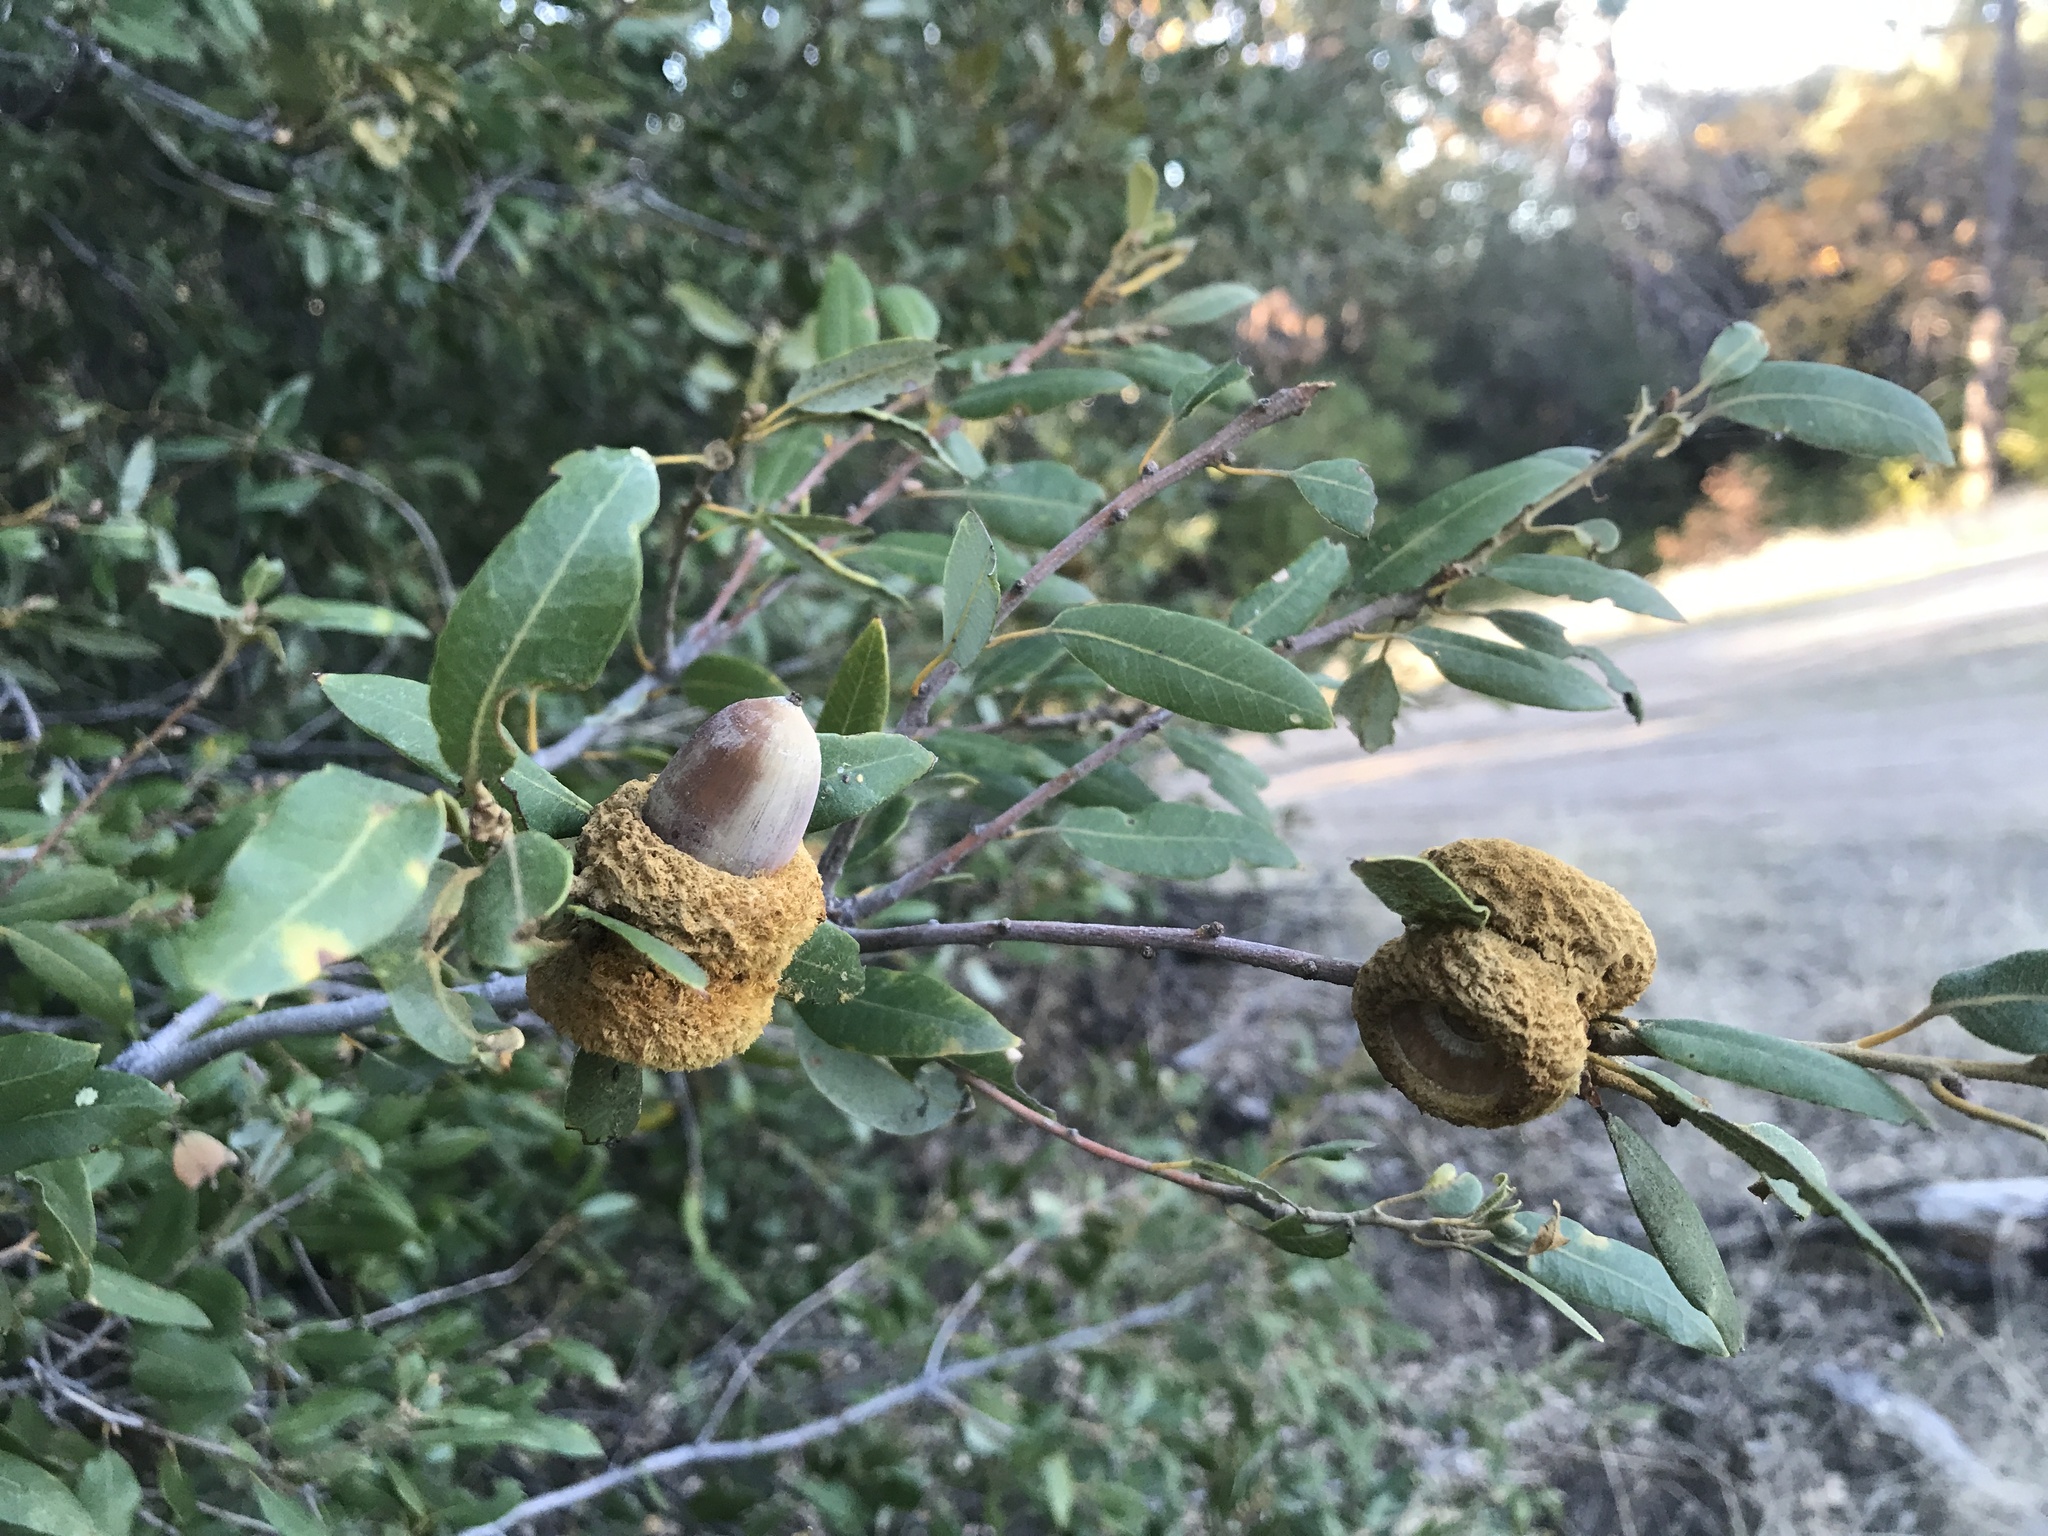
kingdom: Plantae
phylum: Tracheophyta
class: Magnoliopsida
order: Fagales
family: Fagaceae
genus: Quercus
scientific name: Quercus chrysolepis
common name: Canyon live oak
